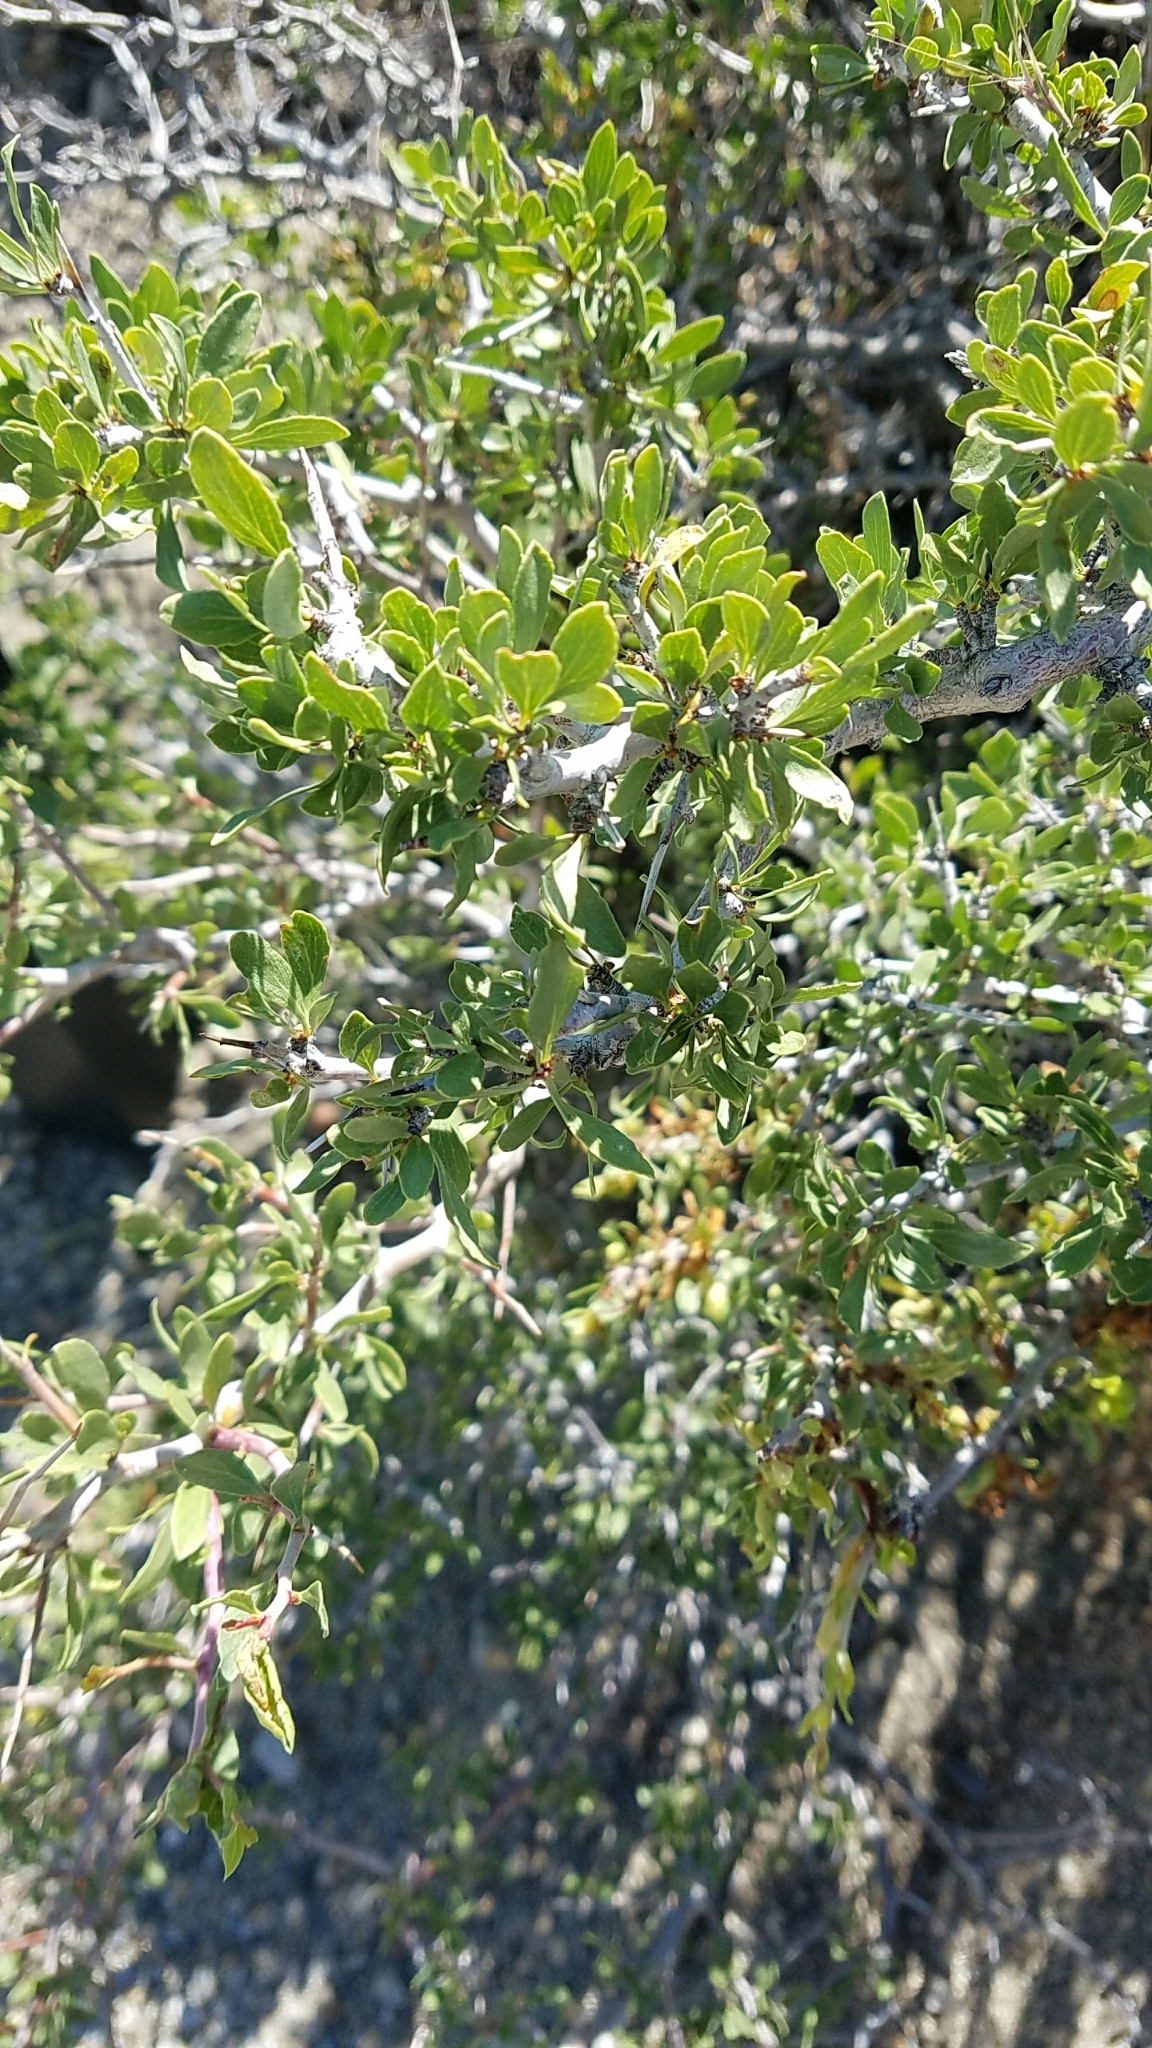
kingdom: Plantae
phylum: Tracheophyta
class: Magnoliopsida
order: Rosales
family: Rosaceae
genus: Prunus
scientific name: Prunus andersonii
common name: Desert peach
